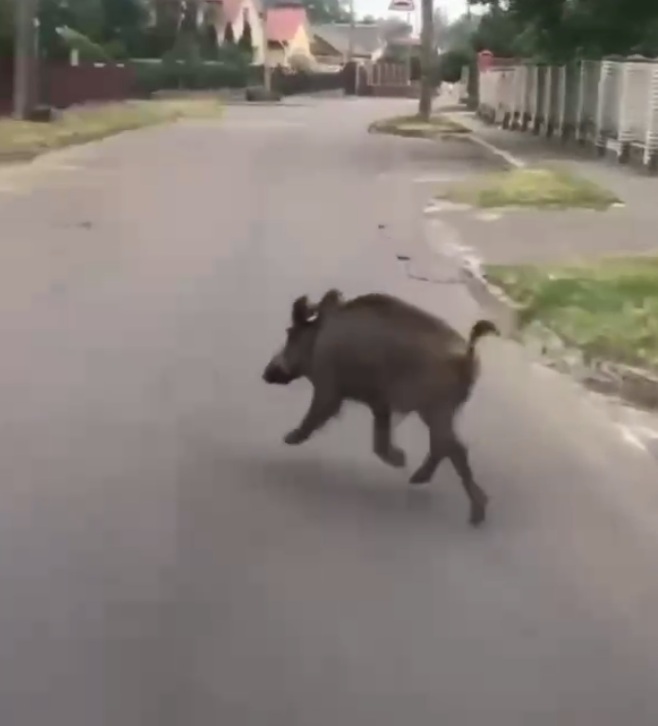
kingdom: Animalia
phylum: Chordata
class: Mammalia
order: Artiodactyla
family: Suidae
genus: Sus
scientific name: Sus scrofa
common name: Wild boar
